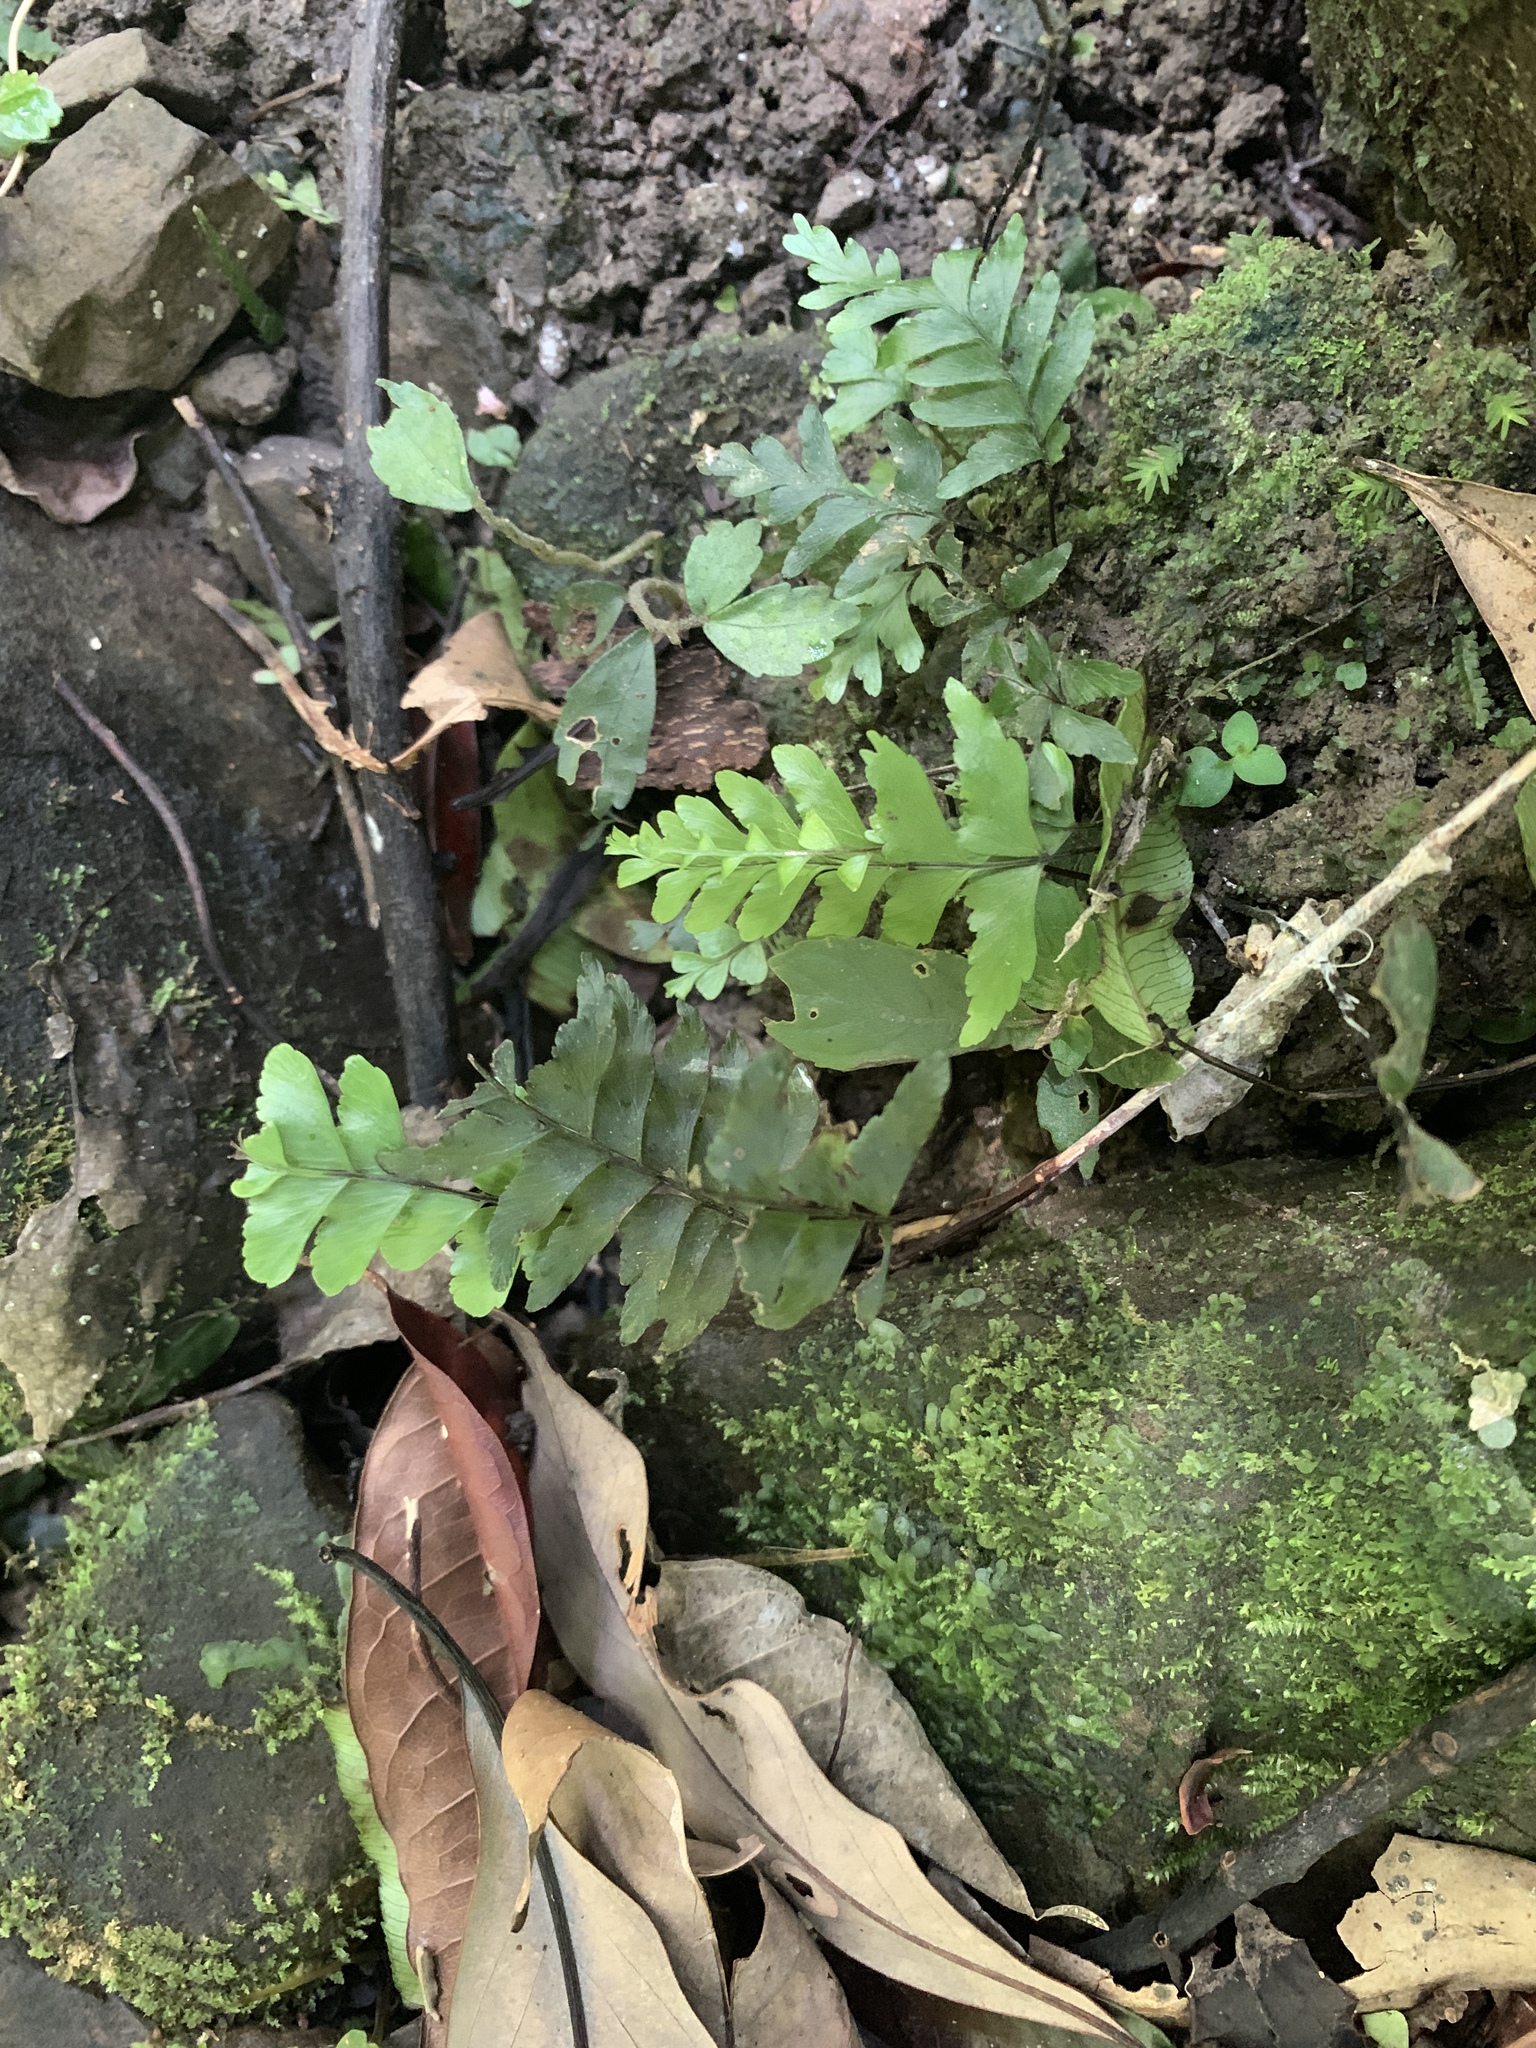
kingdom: Plantae
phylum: Tracheophyta
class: Polypodiopsida
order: Polypodiales
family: Aspleniaceae
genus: Hymenasplenium
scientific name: Hymenasplenium unilaterale
